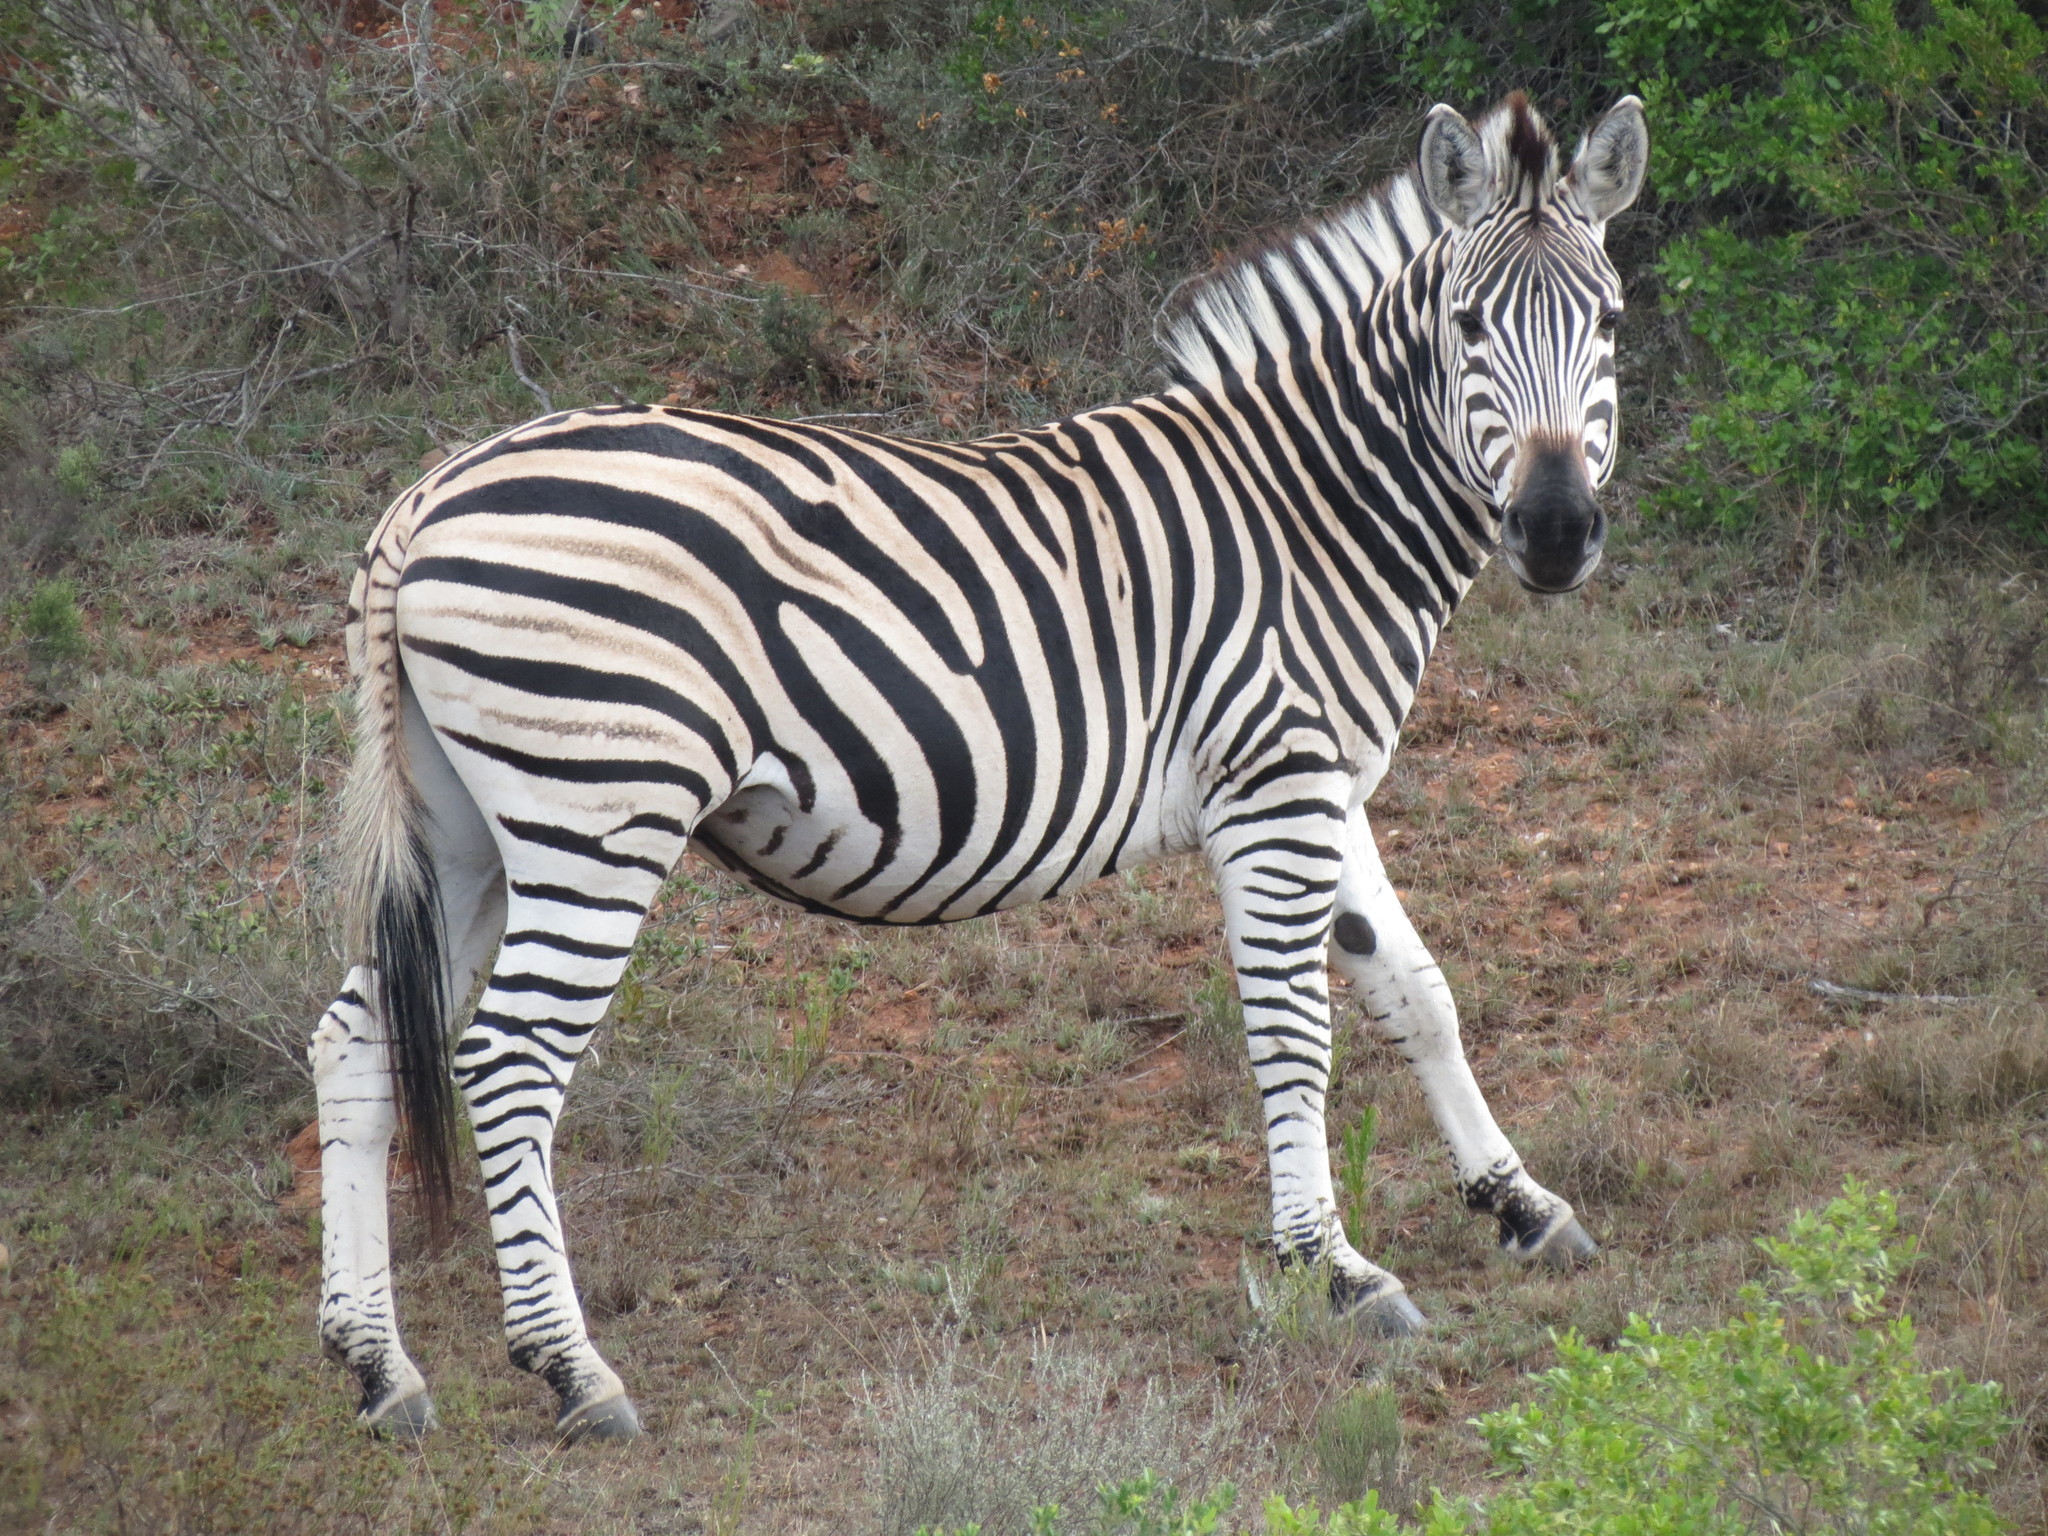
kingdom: Animalia
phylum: Chordata
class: Mammalia
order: Perissodactyla
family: Equidae
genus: Equus
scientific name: Equus quagga
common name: Plains zebra
